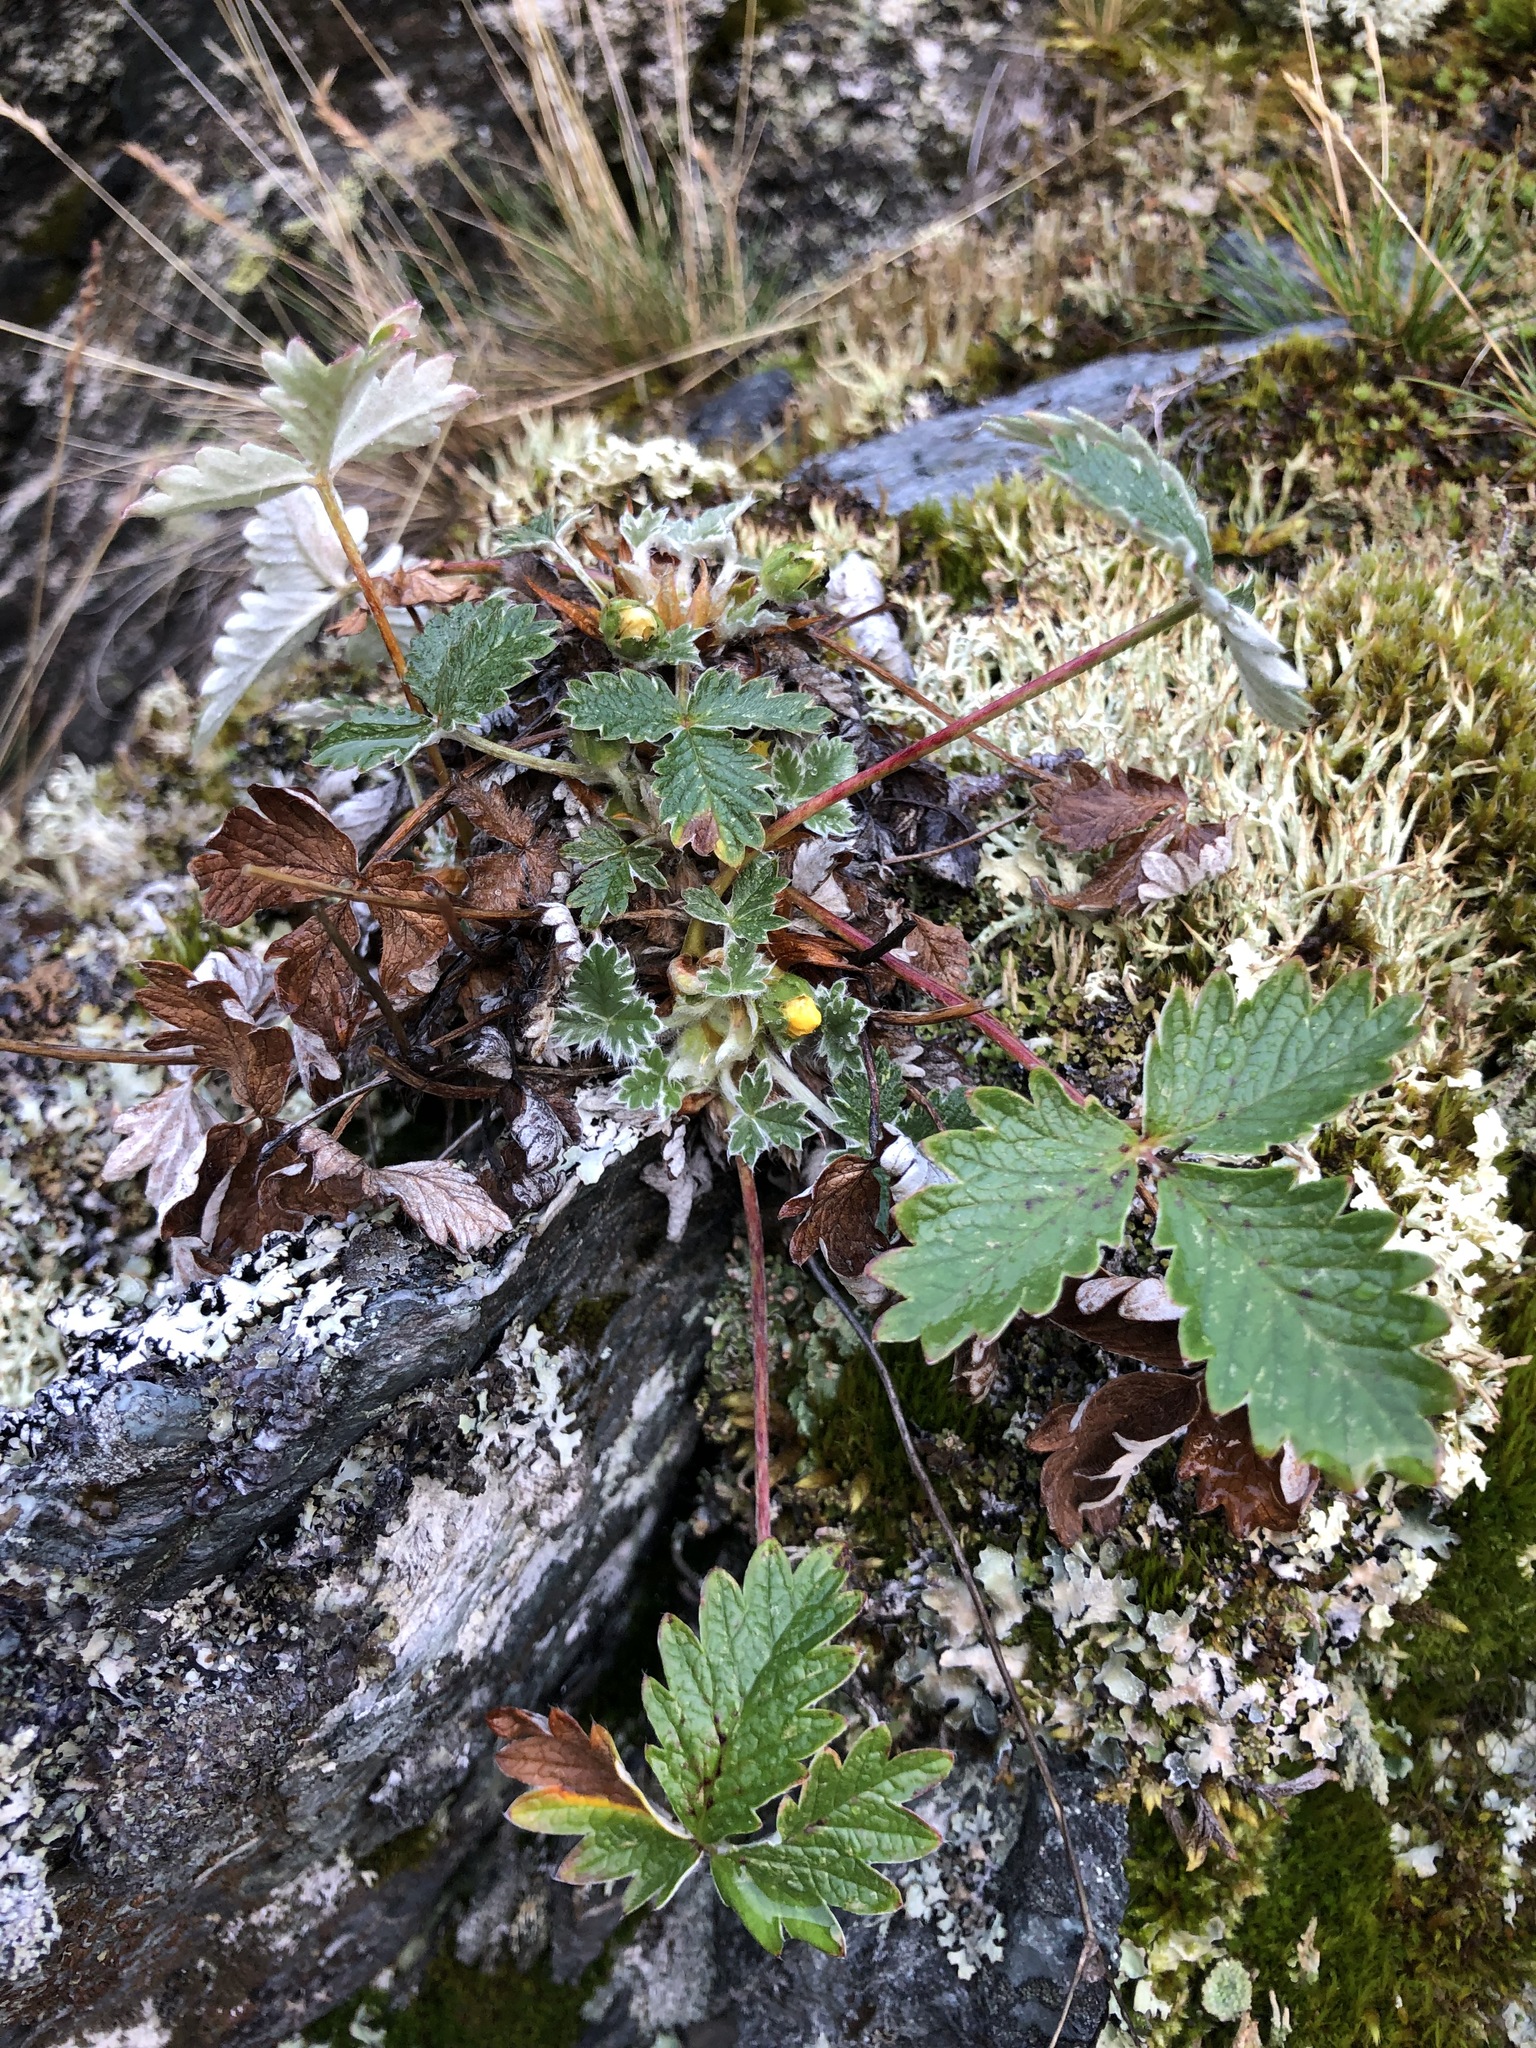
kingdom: Plantae
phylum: Tracheophyta
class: Magnoliopsida
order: Rosales
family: Rosaceae
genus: Potentilla
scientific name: Potentilla chamissonis
